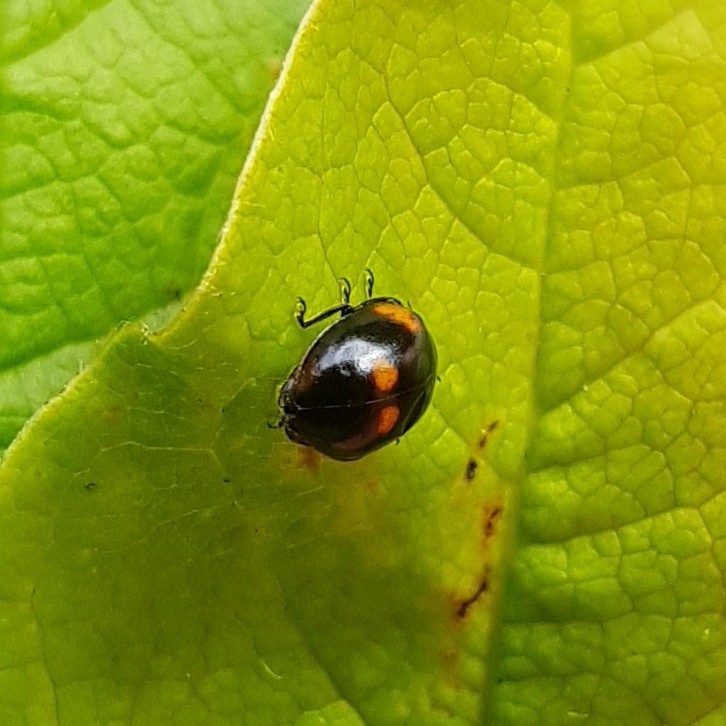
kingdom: Animalia
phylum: Arthropoda
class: Insecta
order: Coleoptera
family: Coccinellidae
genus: Adalia
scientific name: Adalia bipunctata
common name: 2-spot ladybird
